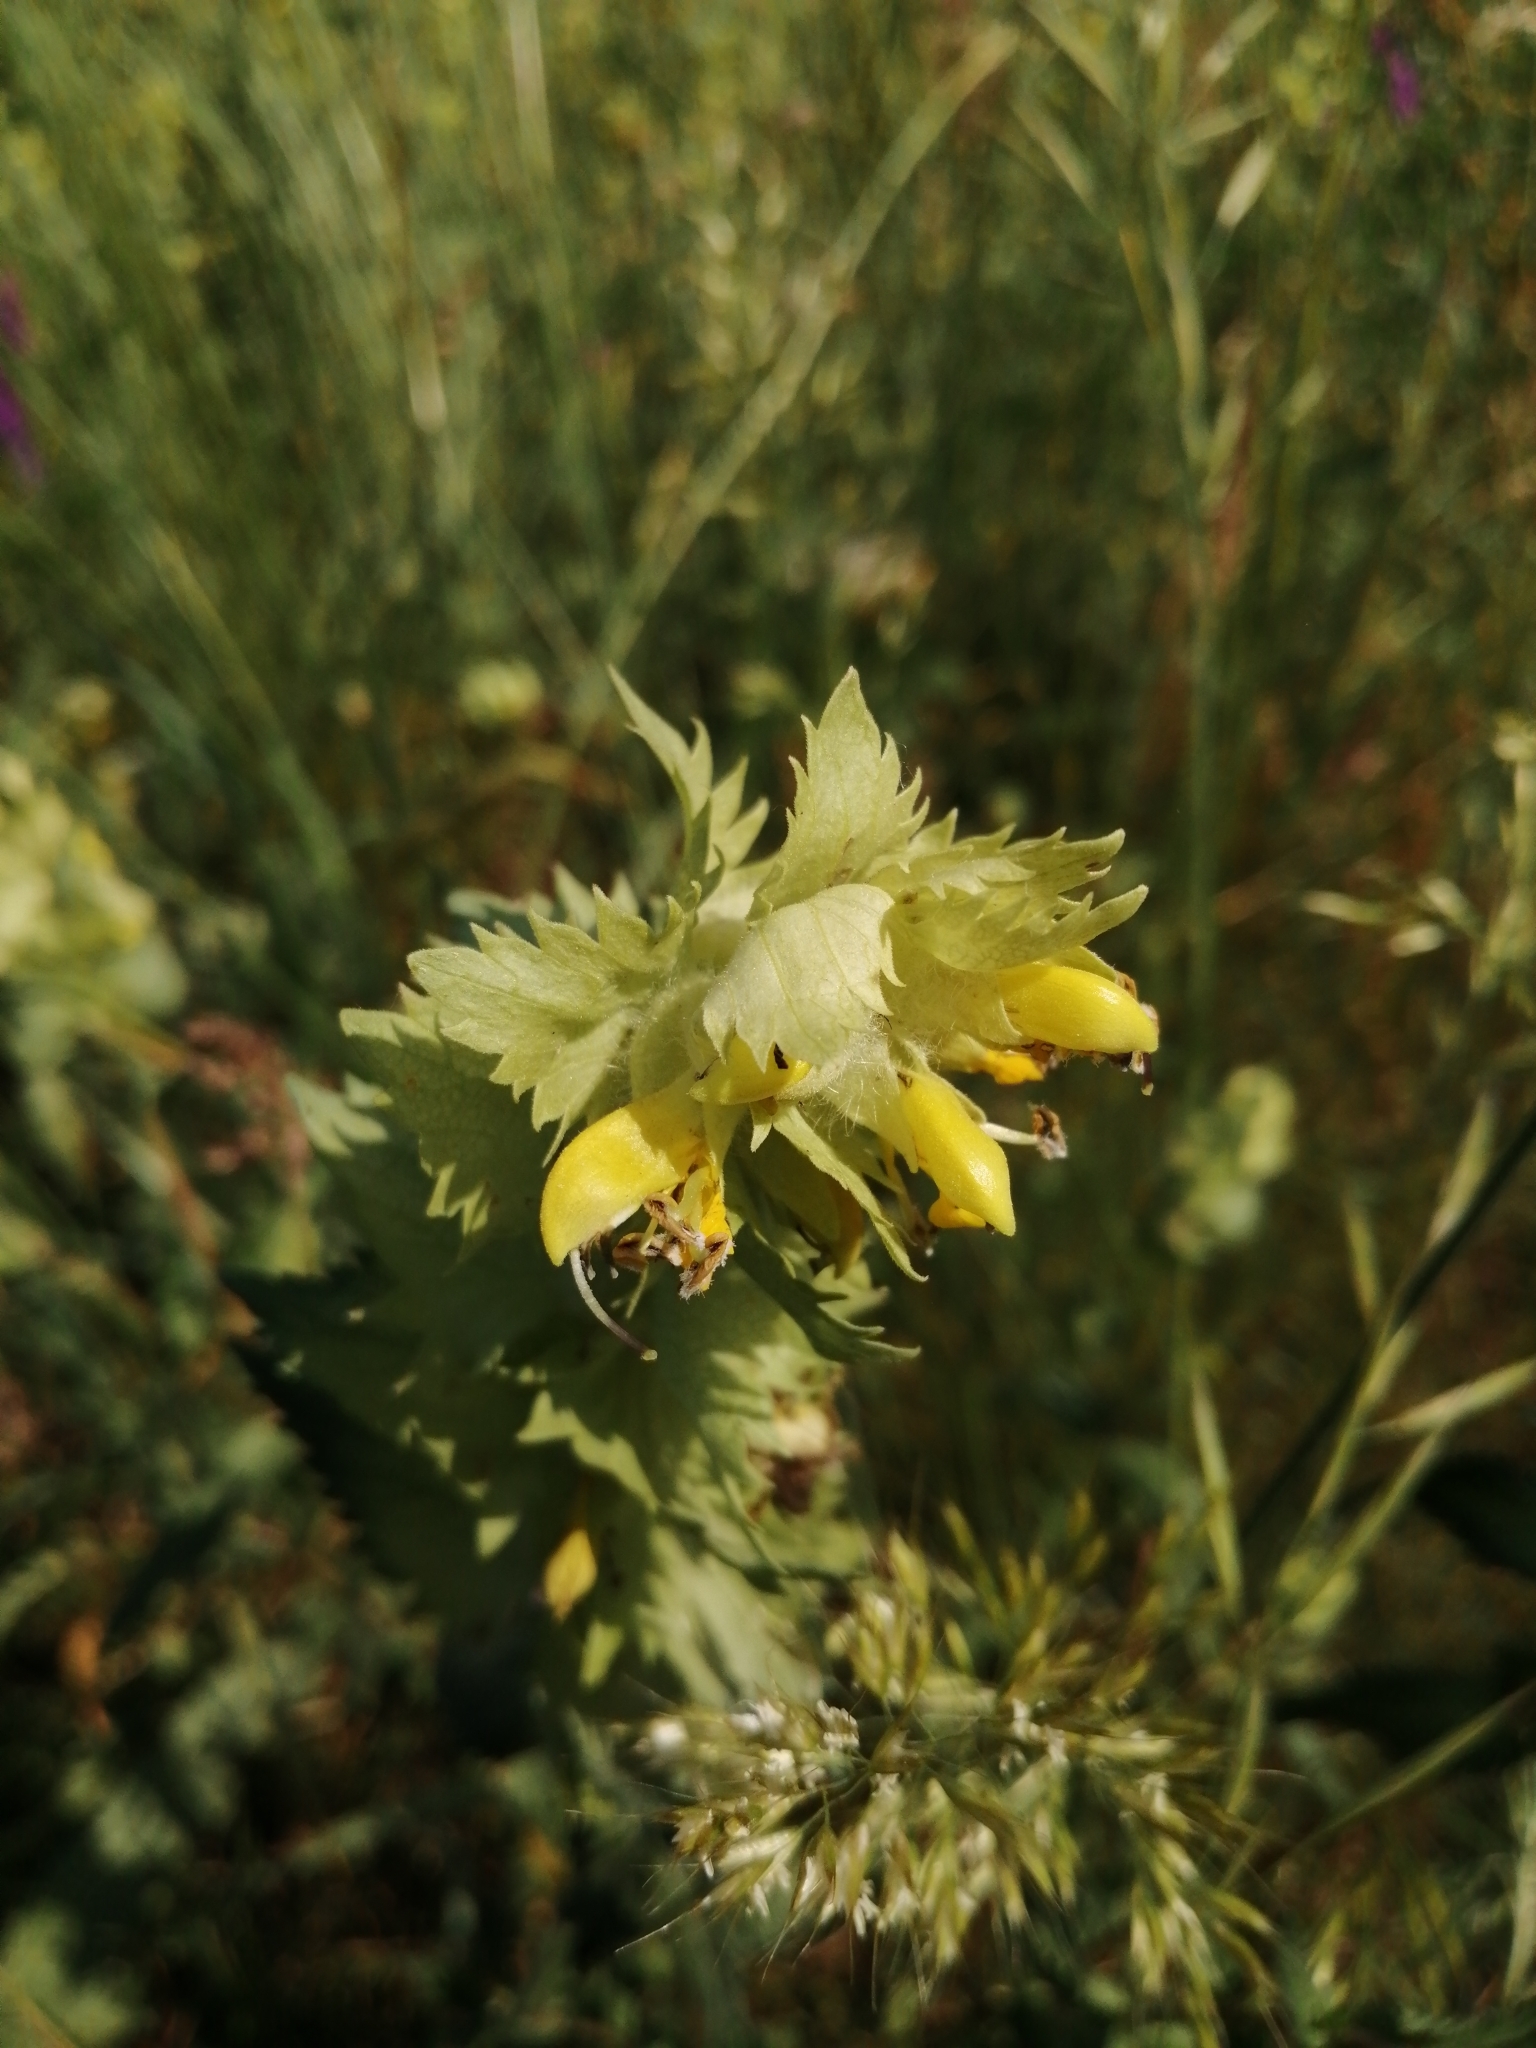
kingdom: Plantae
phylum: Tracheophyta
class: Magnoliopsida
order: Lamiales
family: Orobanchaceae
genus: Rhinanthus
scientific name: Rhinanthus alectorolophus
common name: Greater yellow-rattle
